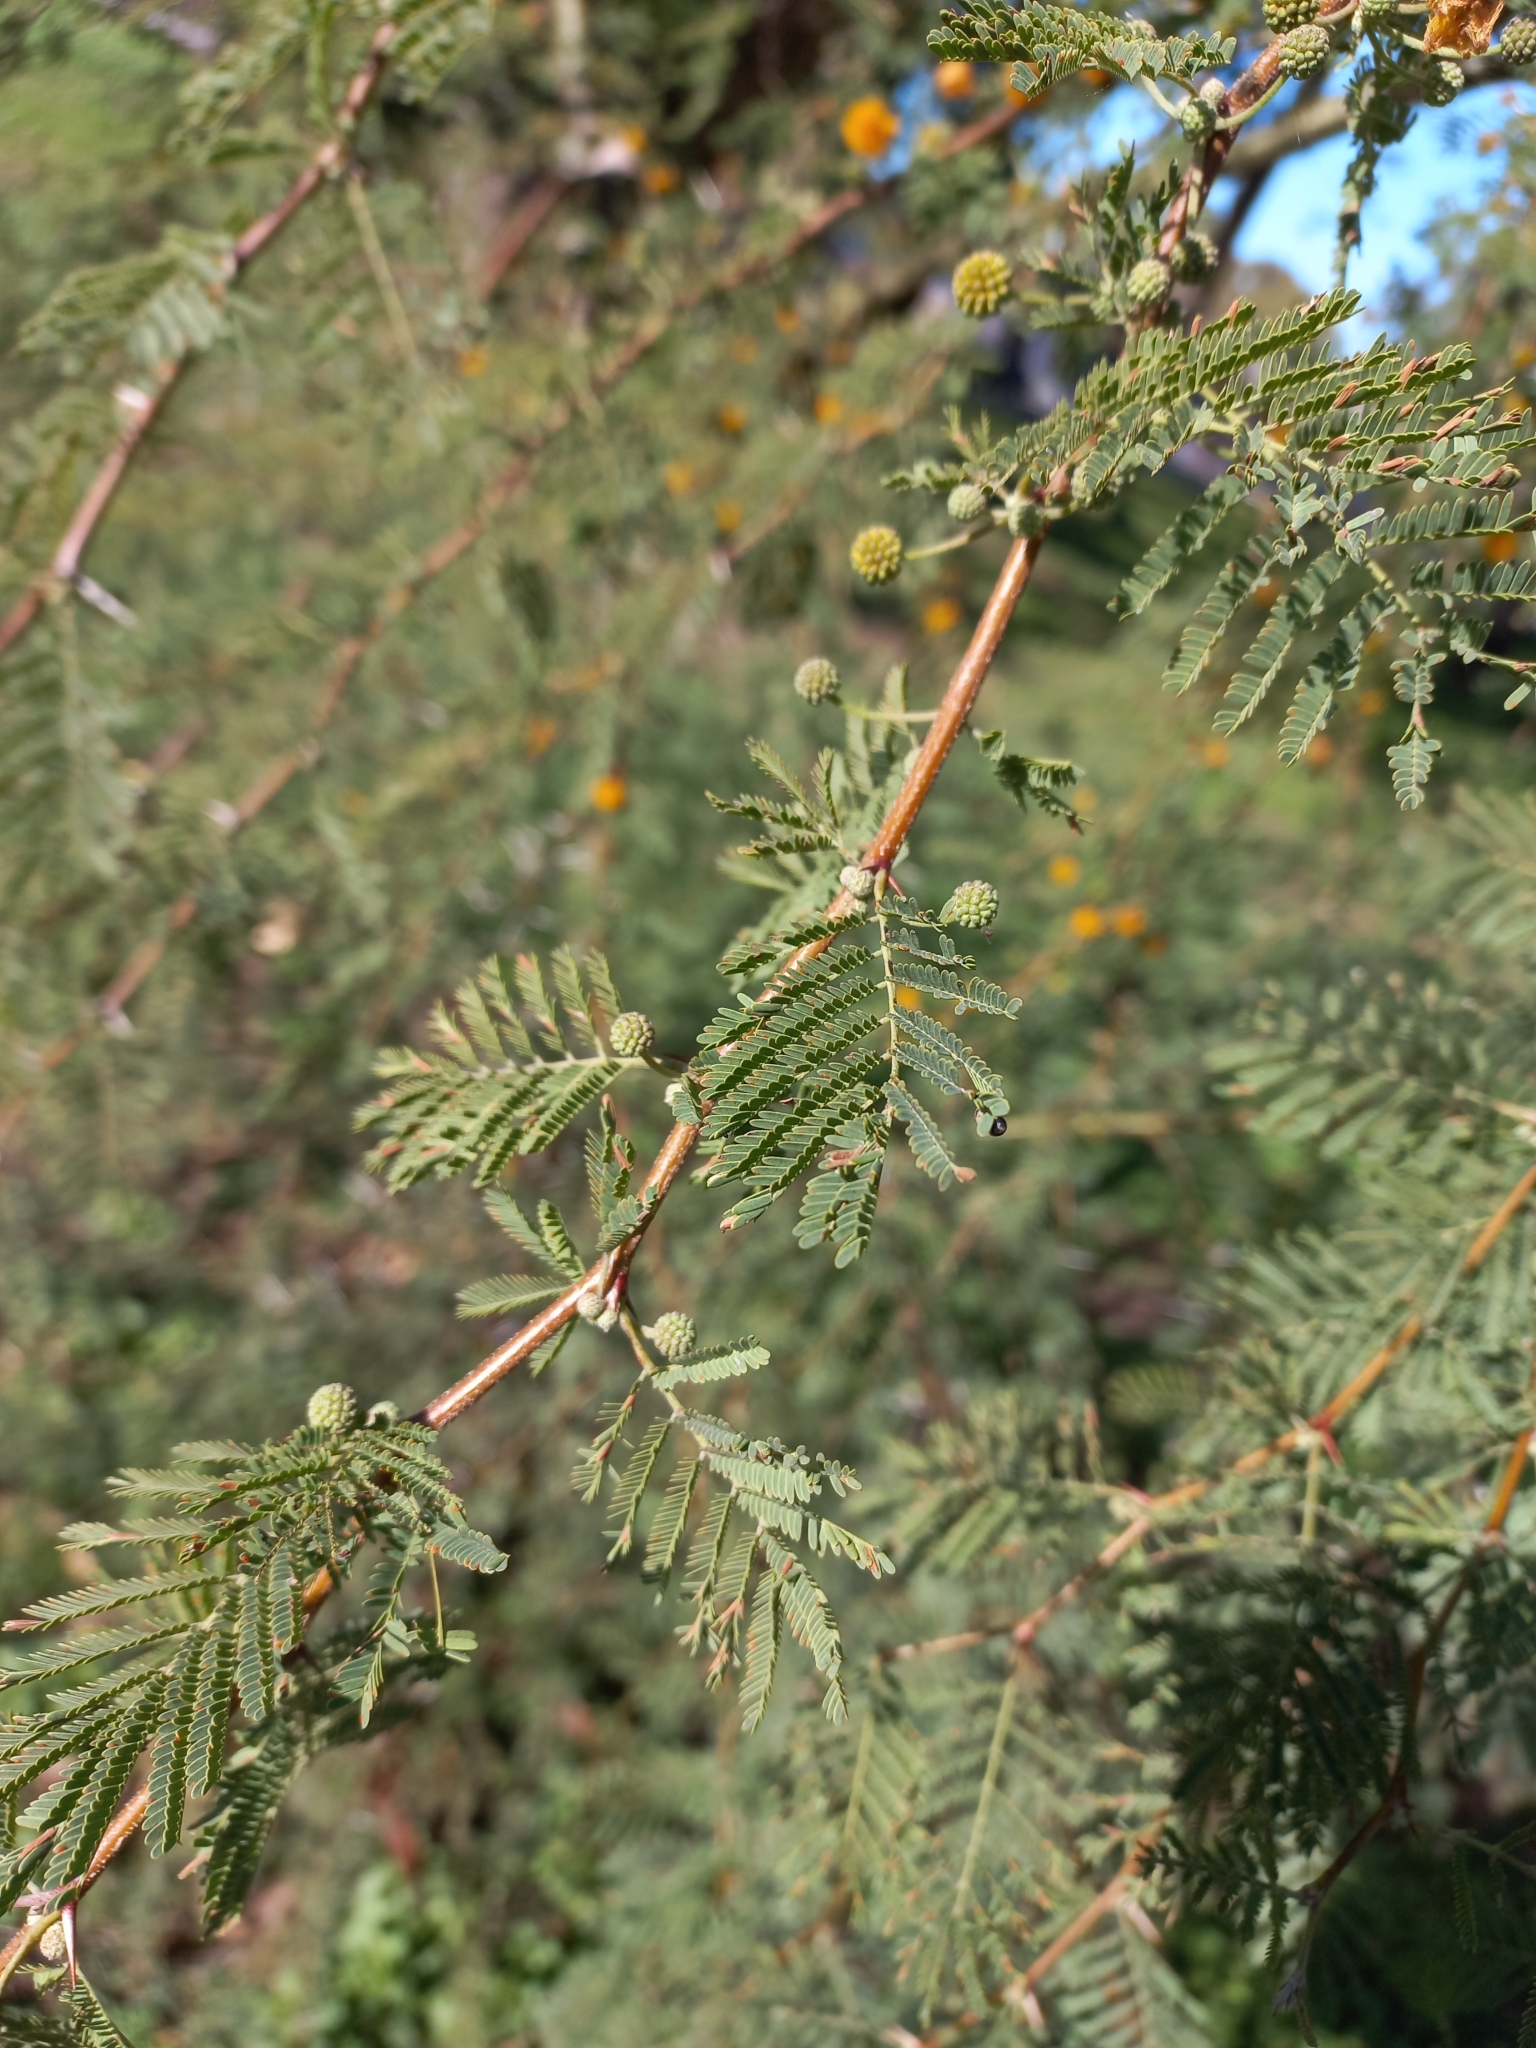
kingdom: Plantae
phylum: Tracheophyta
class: Magnoliopsida
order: Fabales
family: Fabaceae
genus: Vachellia
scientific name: Vachellia caven
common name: Roman cassie
